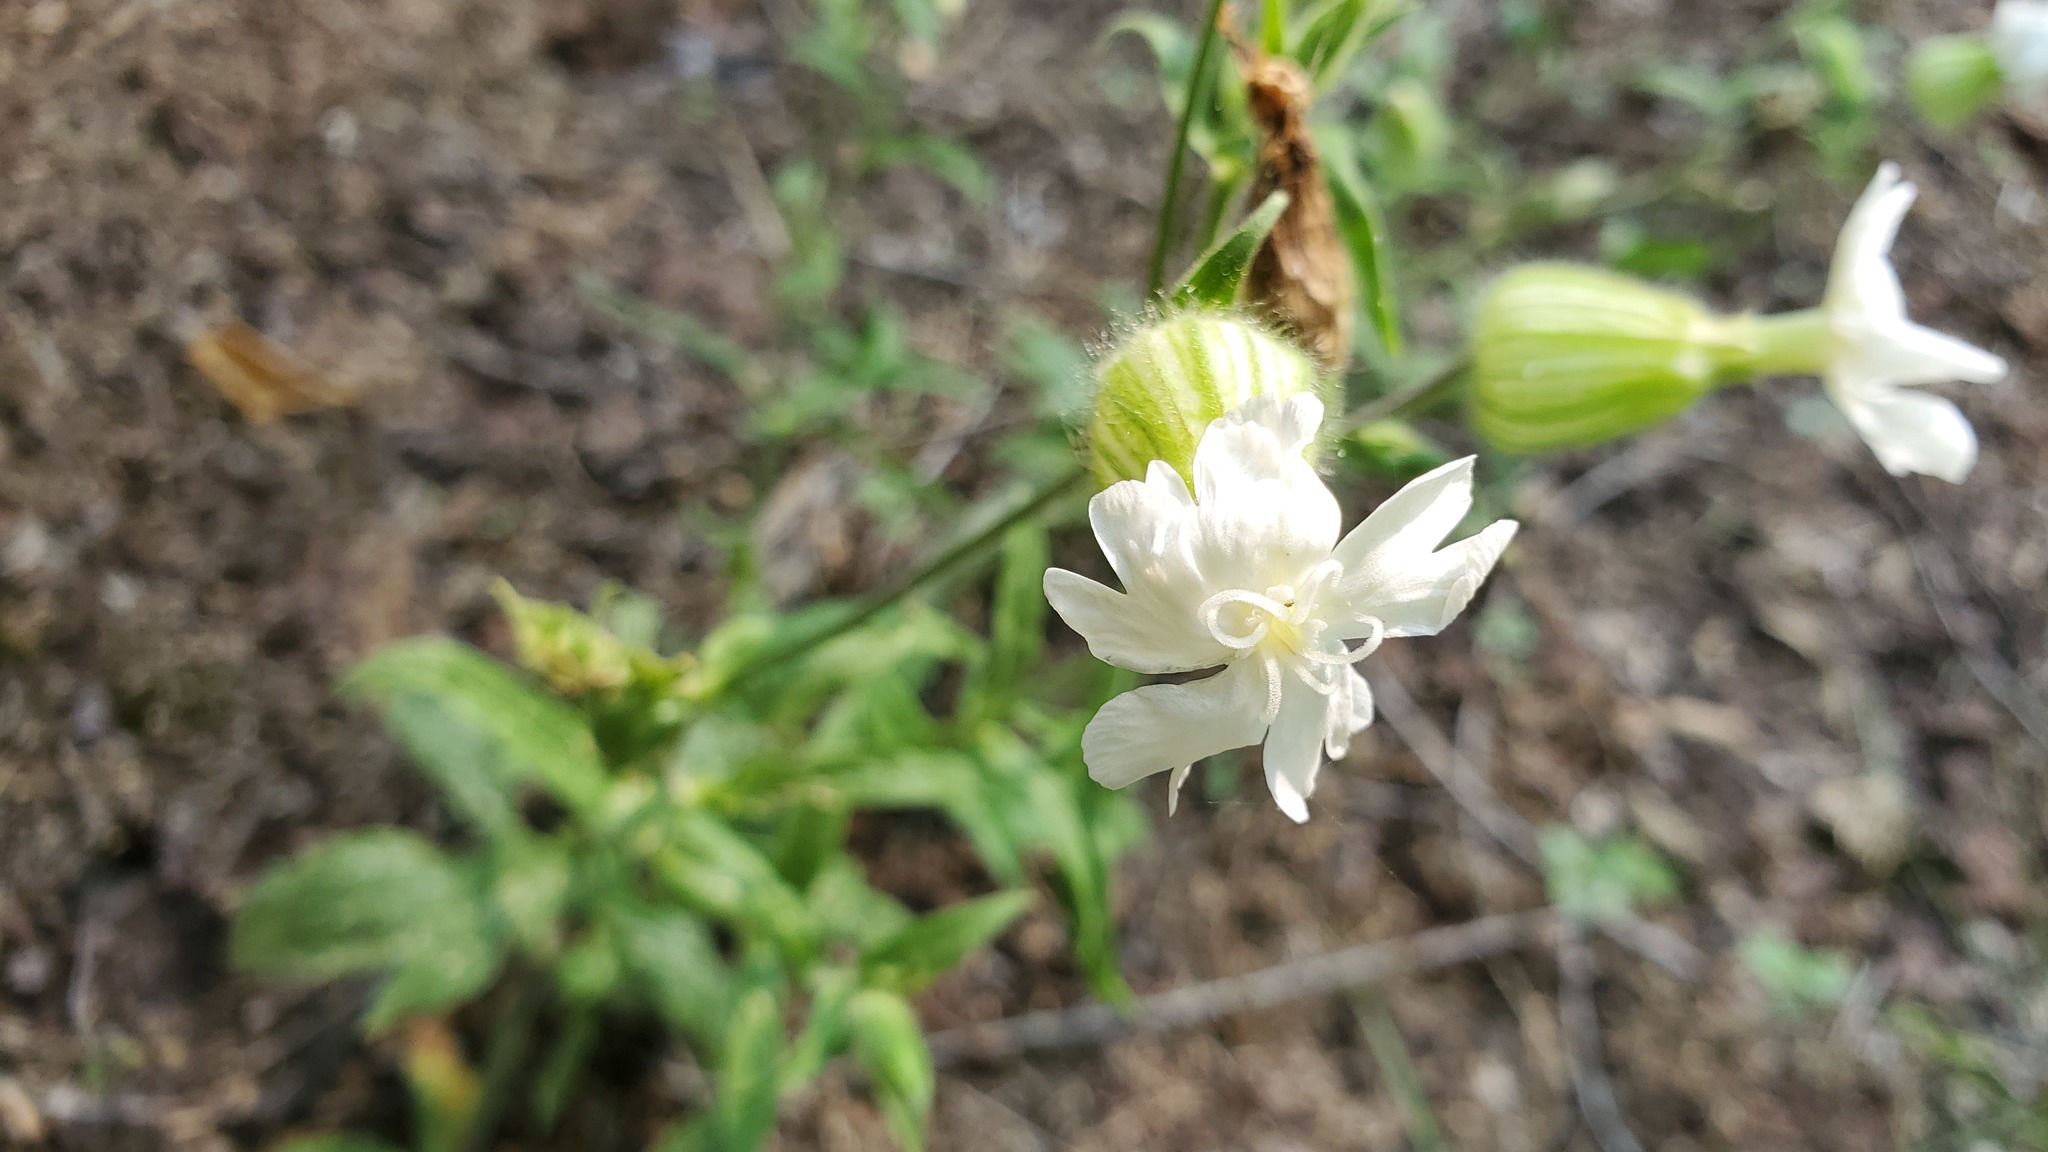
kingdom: Plantae
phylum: Tracheophyta
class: Magnoliopsida
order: Caryophyllales
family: Caryophyllaceae
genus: Silene
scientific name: Silene latifolia
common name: White campion
